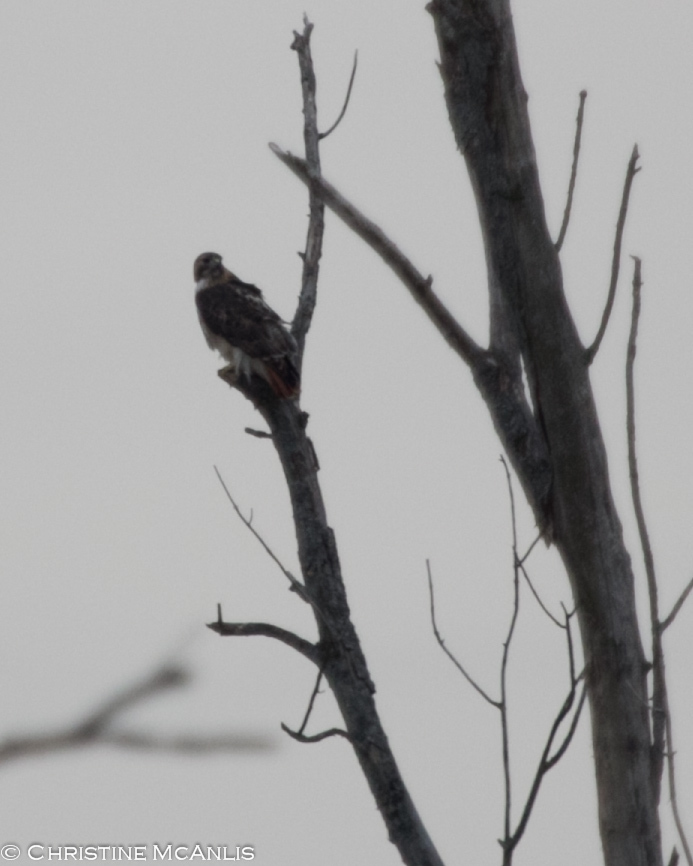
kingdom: Animalia
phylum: Chordata
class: Aves
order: Accipitriformes
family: Accipitridae
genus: Buteo
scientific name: Buteo jamaicensis
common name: Red-tailed hawk
